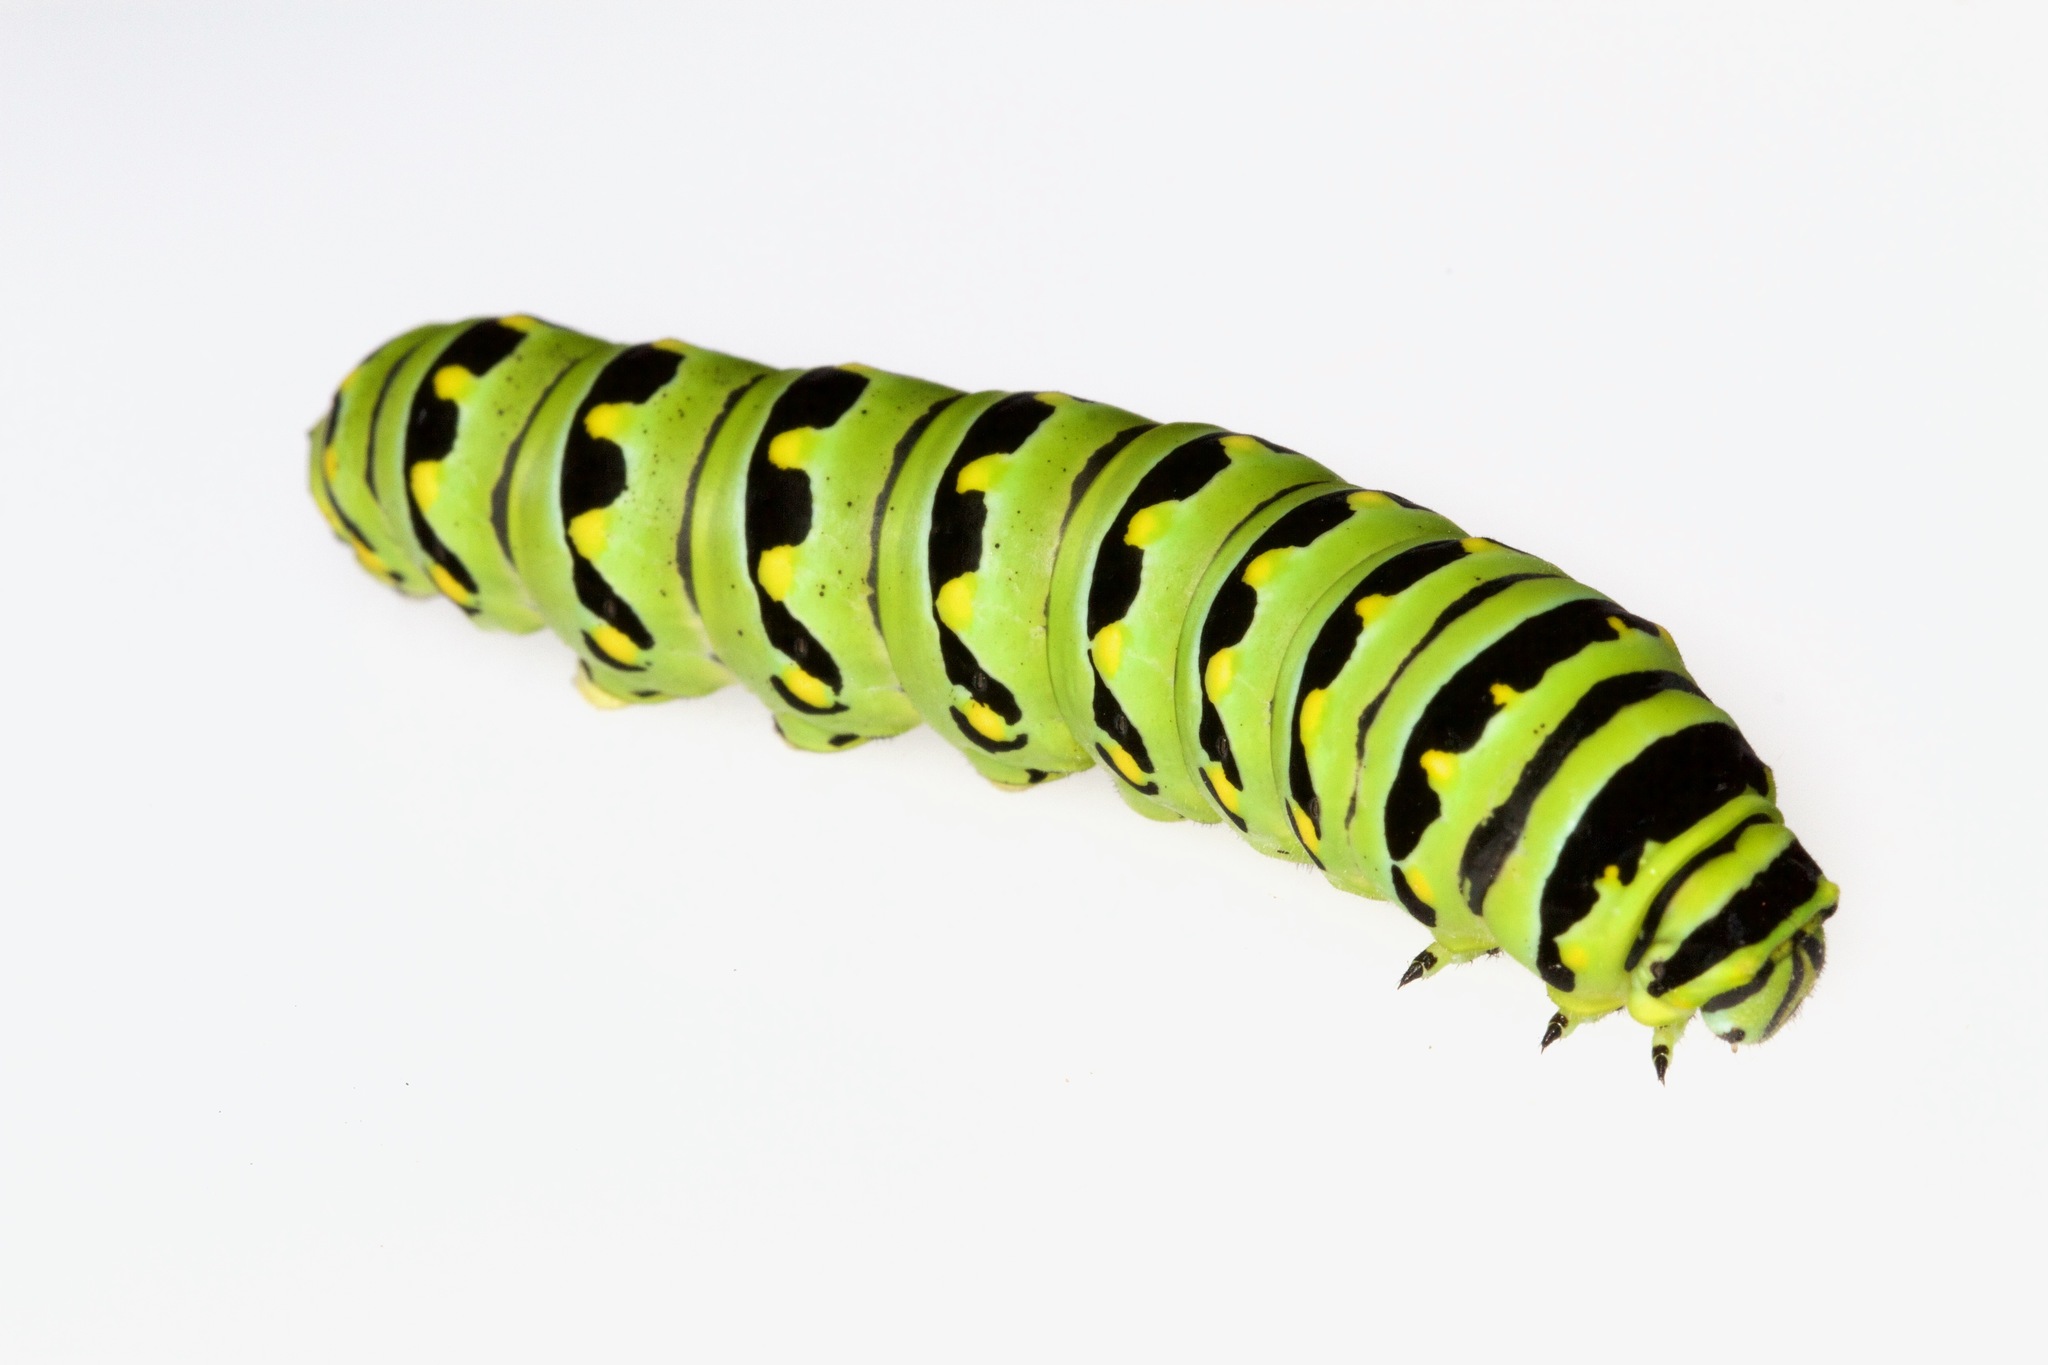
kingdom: Animalia
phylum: Arthropoda
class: Insecta
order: Lepidoptera
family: Papilionidae
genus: Papilio
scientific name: Papilio polyxenes
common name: Black swallowtail
